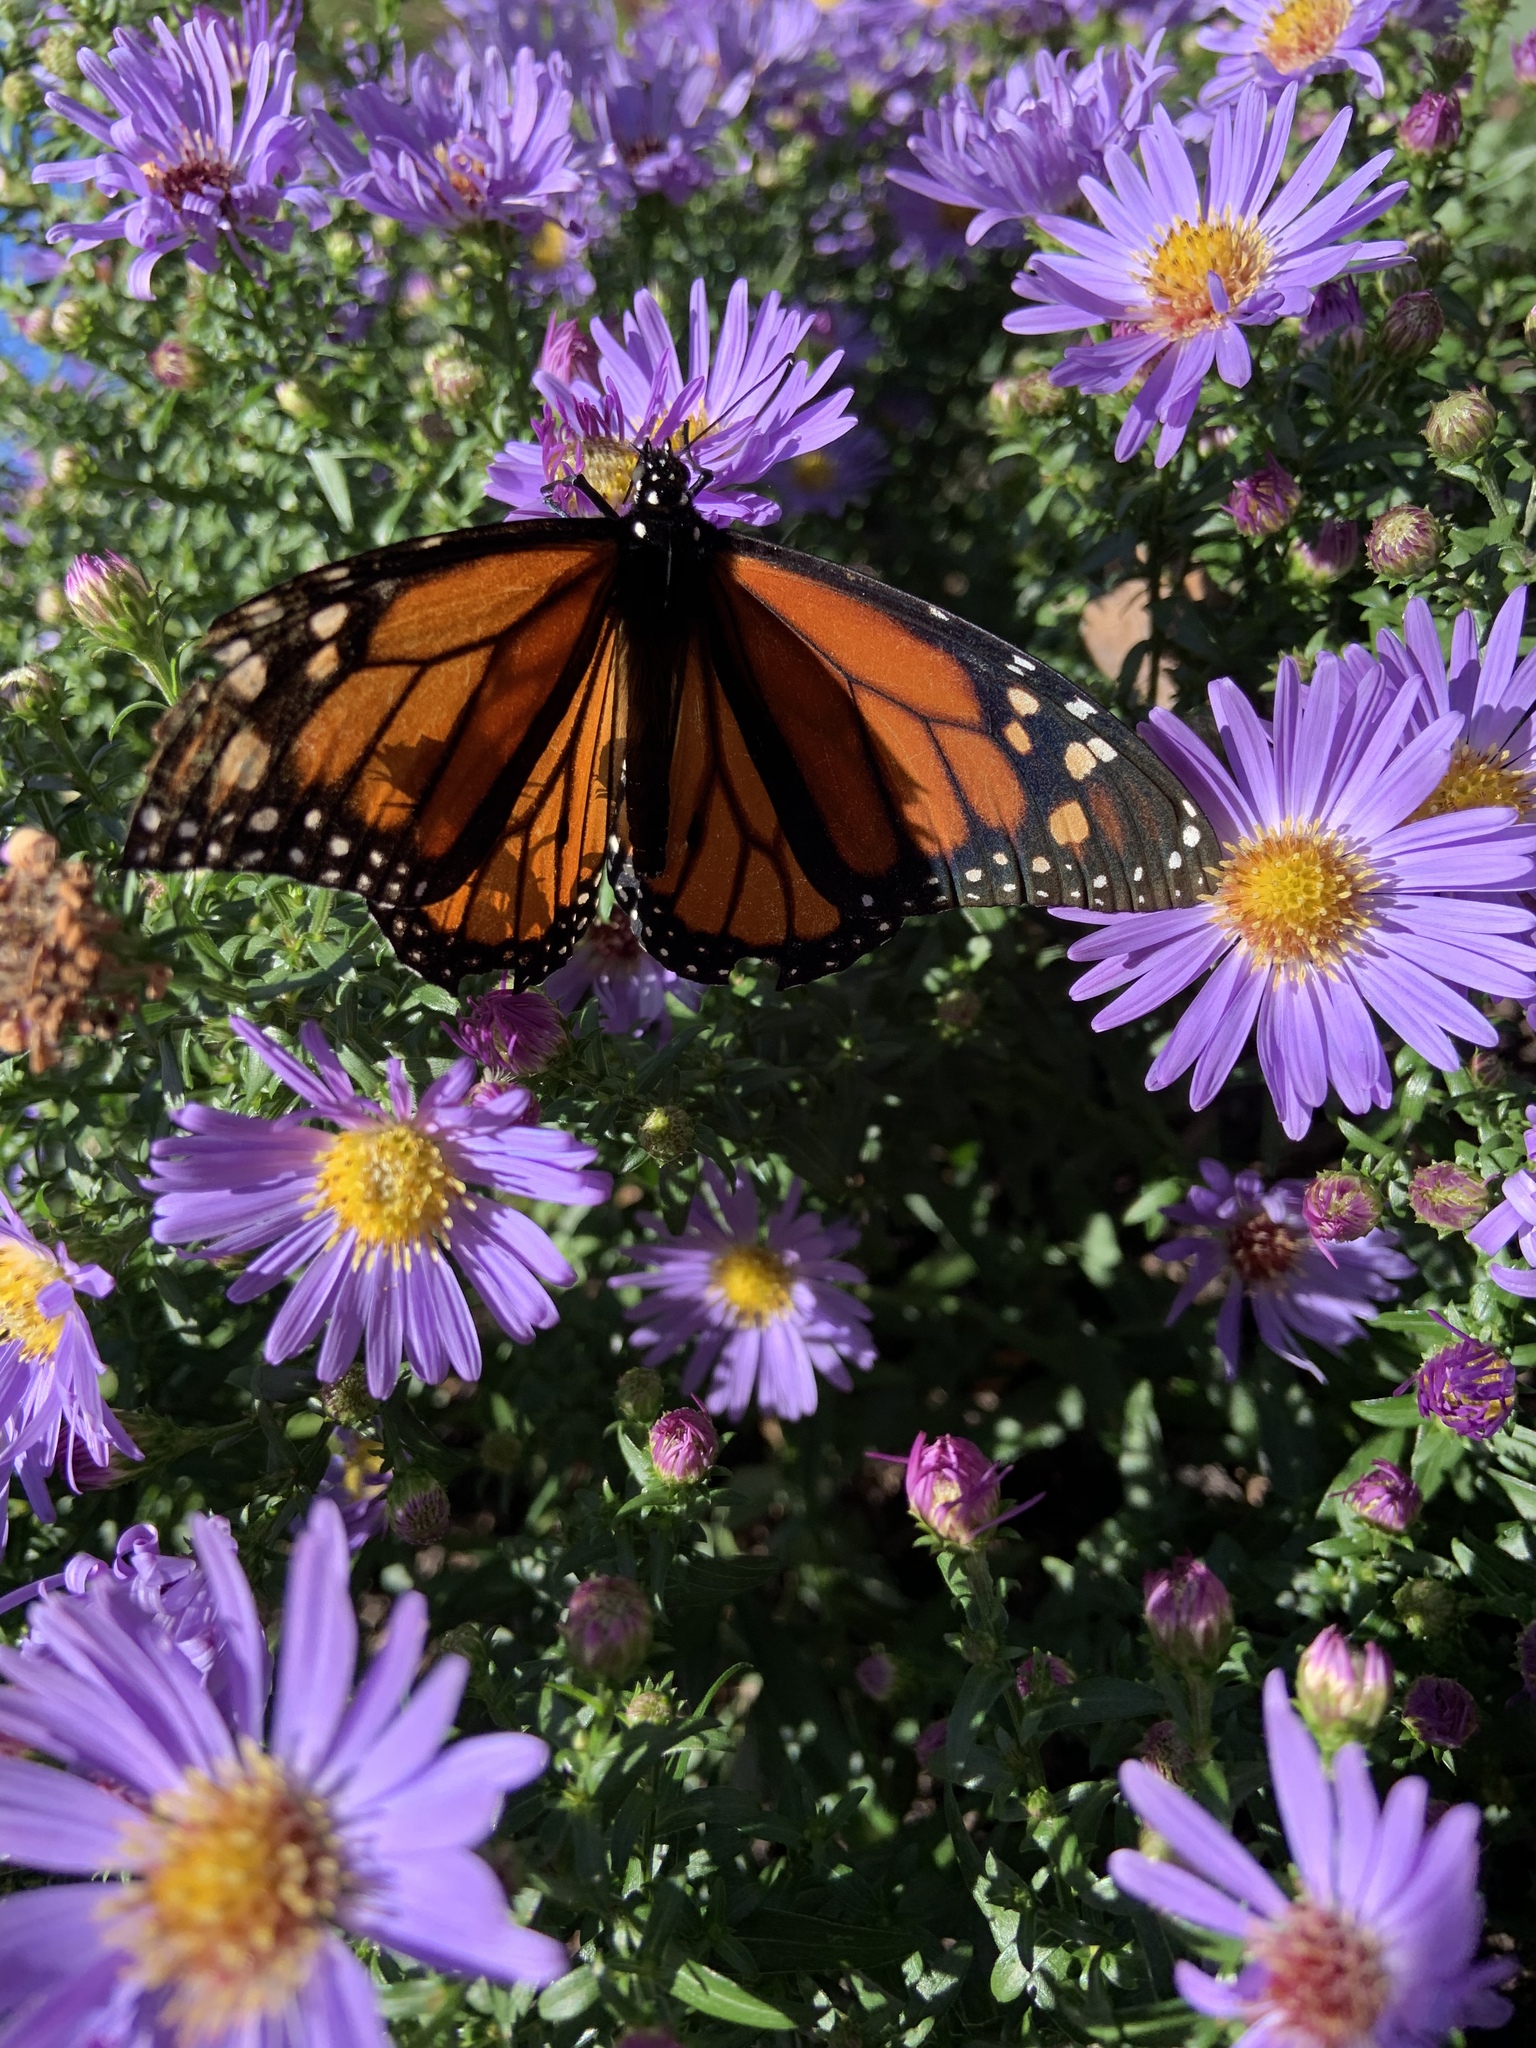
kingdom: Animalia
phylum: Arthropoda
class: Insecta
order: Lepidoptera
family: Nymphalidae
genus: Danaus
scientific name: Danaus plexippus
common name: Monarch
